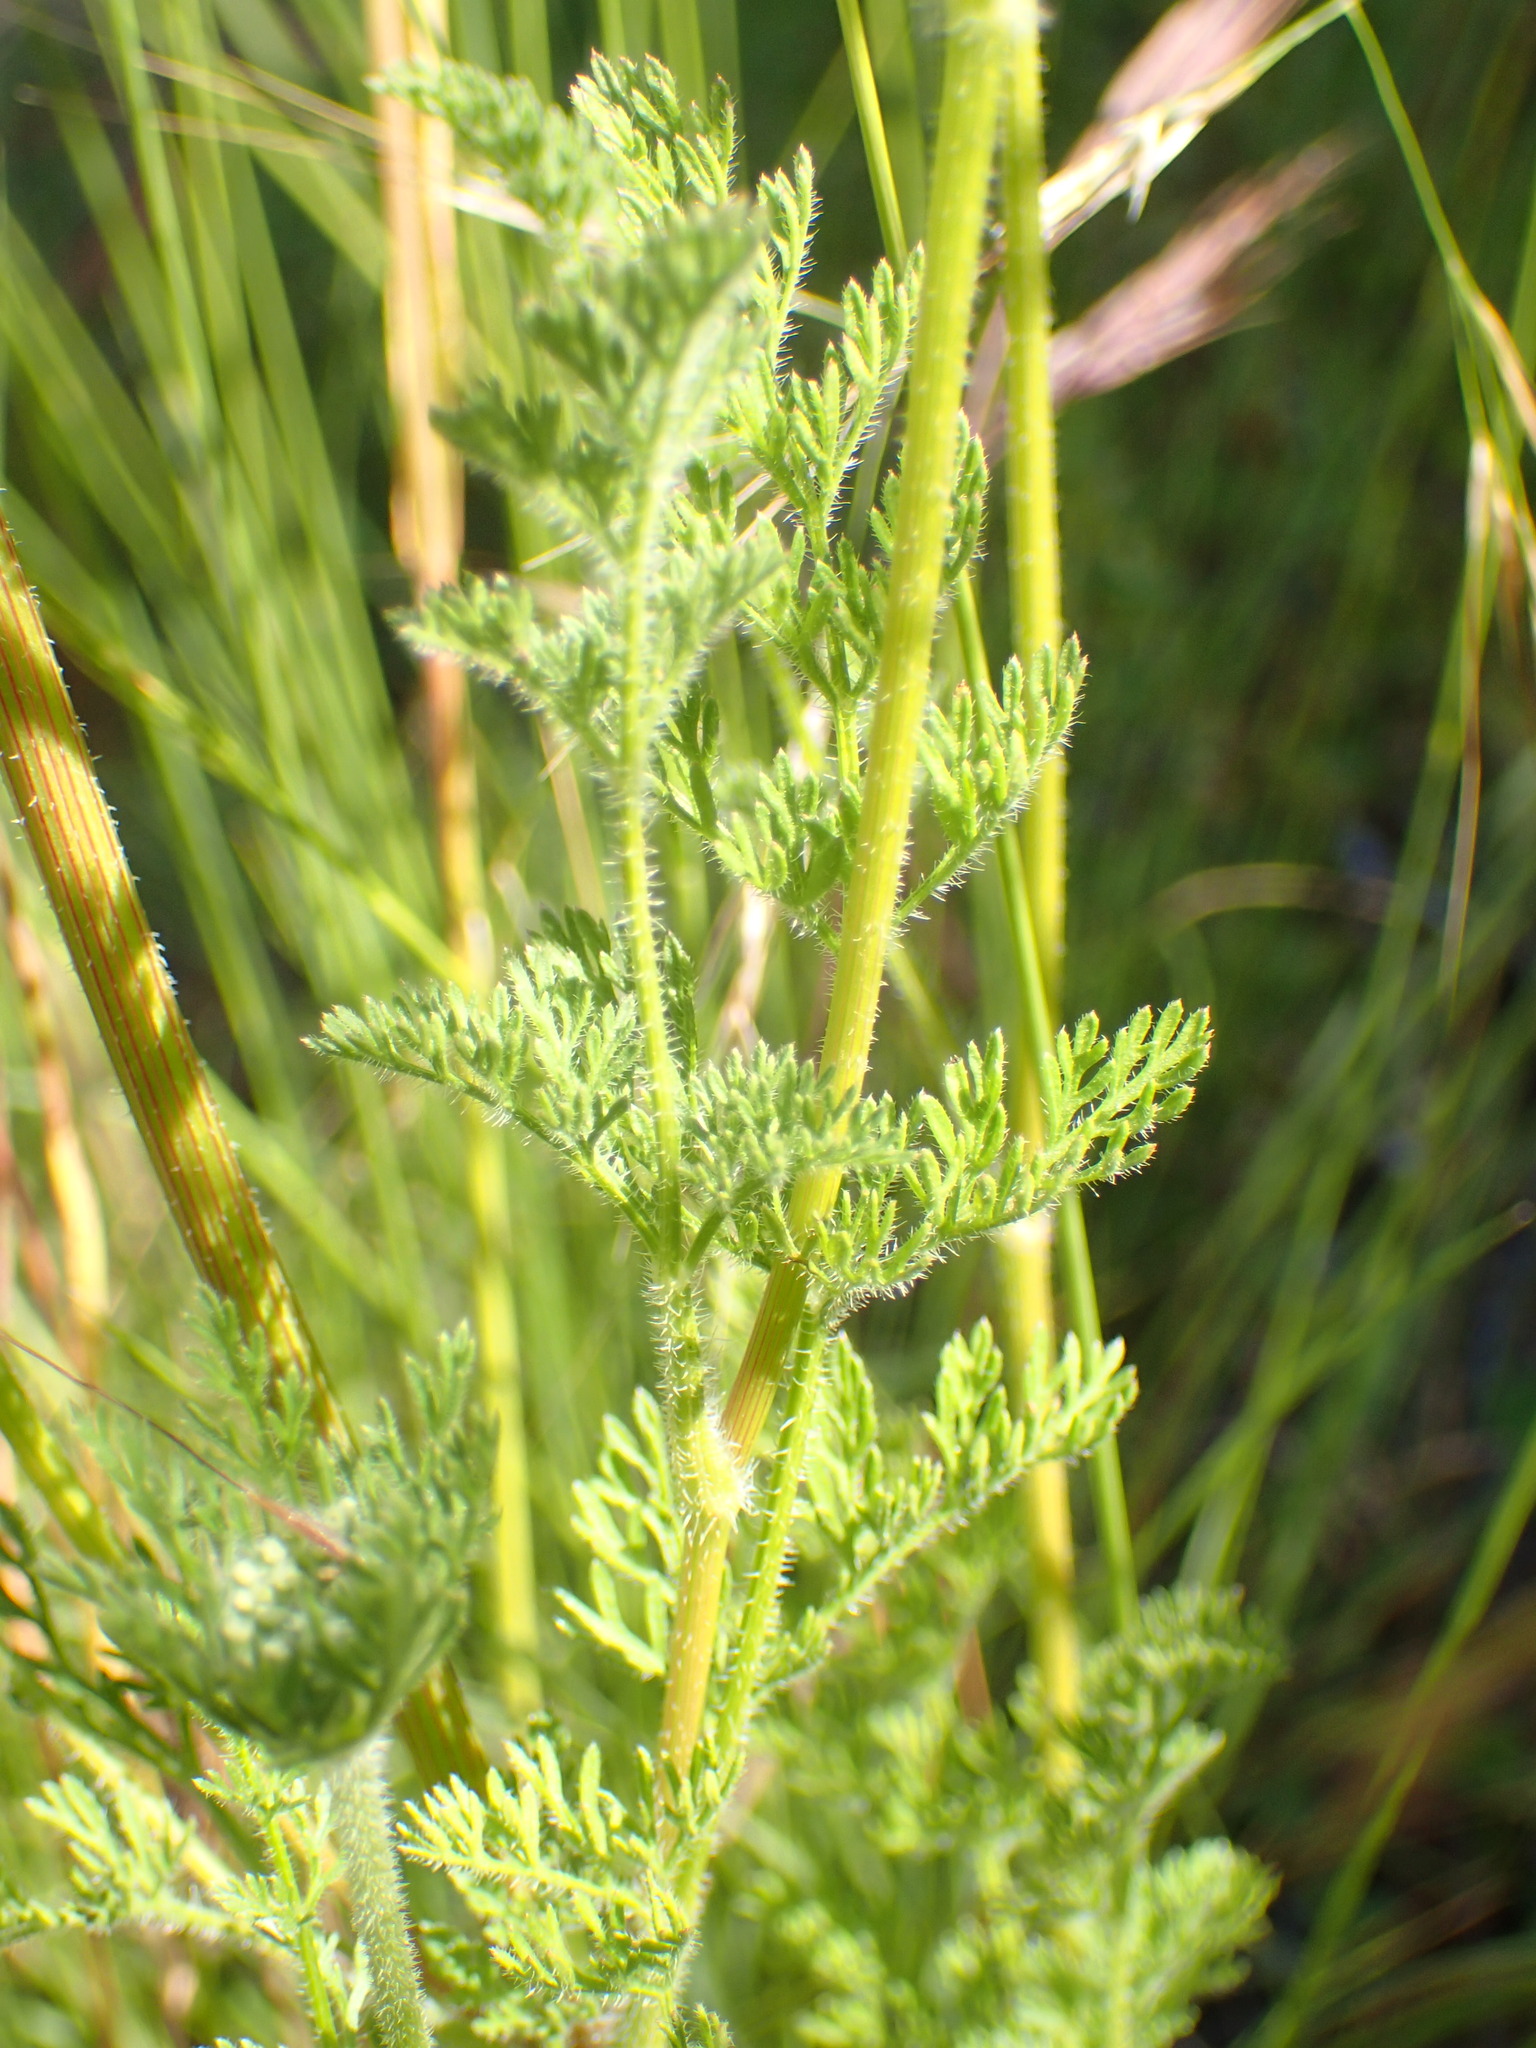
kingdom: Plantae
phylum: Tracheophyta
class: Magnoliopsida
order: Apiales
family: Apiaceae
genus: Daucus
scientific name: Daucus pusillus
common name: Southwest wild carrot
